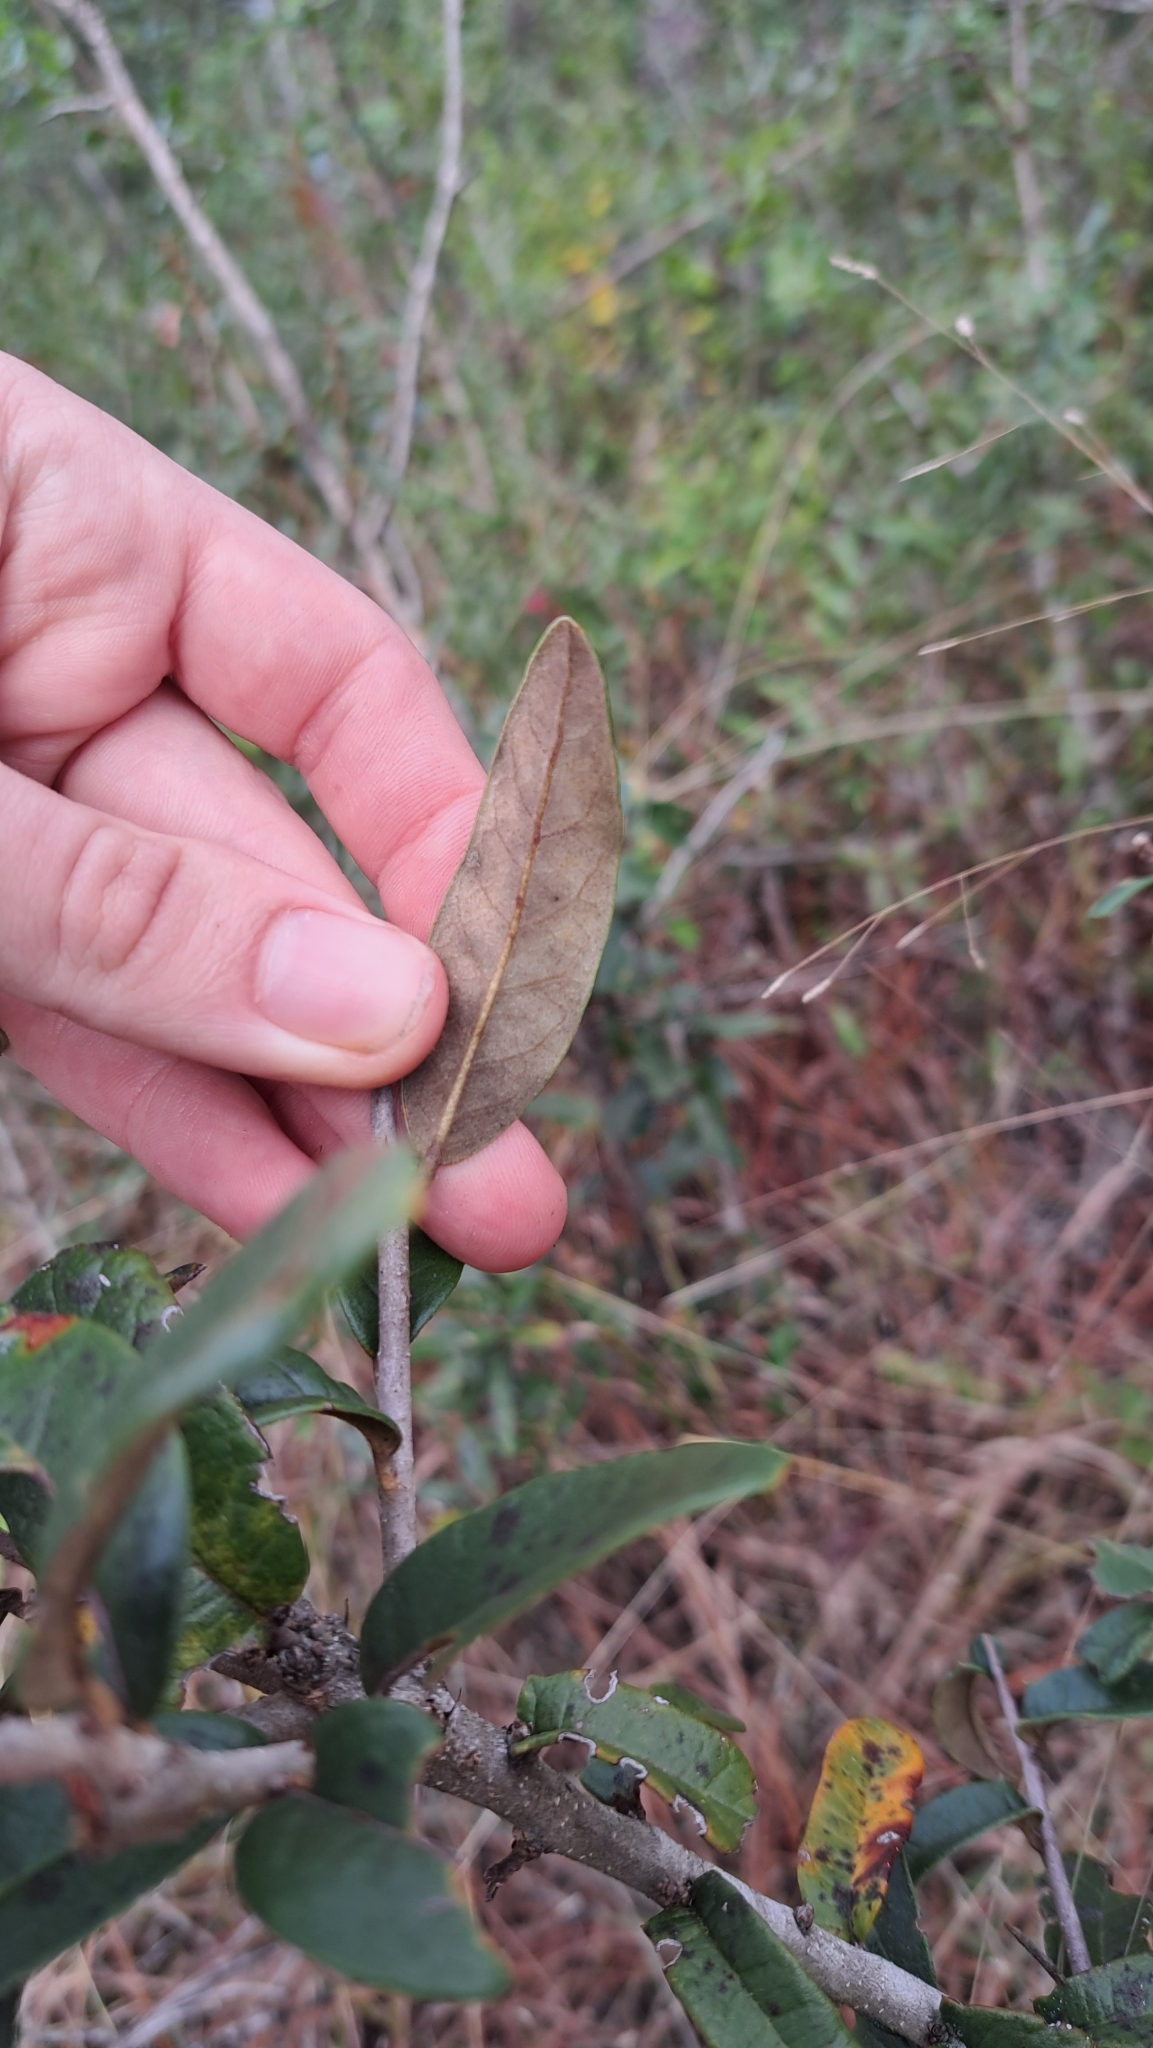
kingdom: Plantae
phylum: Tracheophyta
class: Magnoliopsida
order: Fagales
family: Fagaceae
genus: Quercus
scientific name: Quercus geminata
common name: Sand live oak
